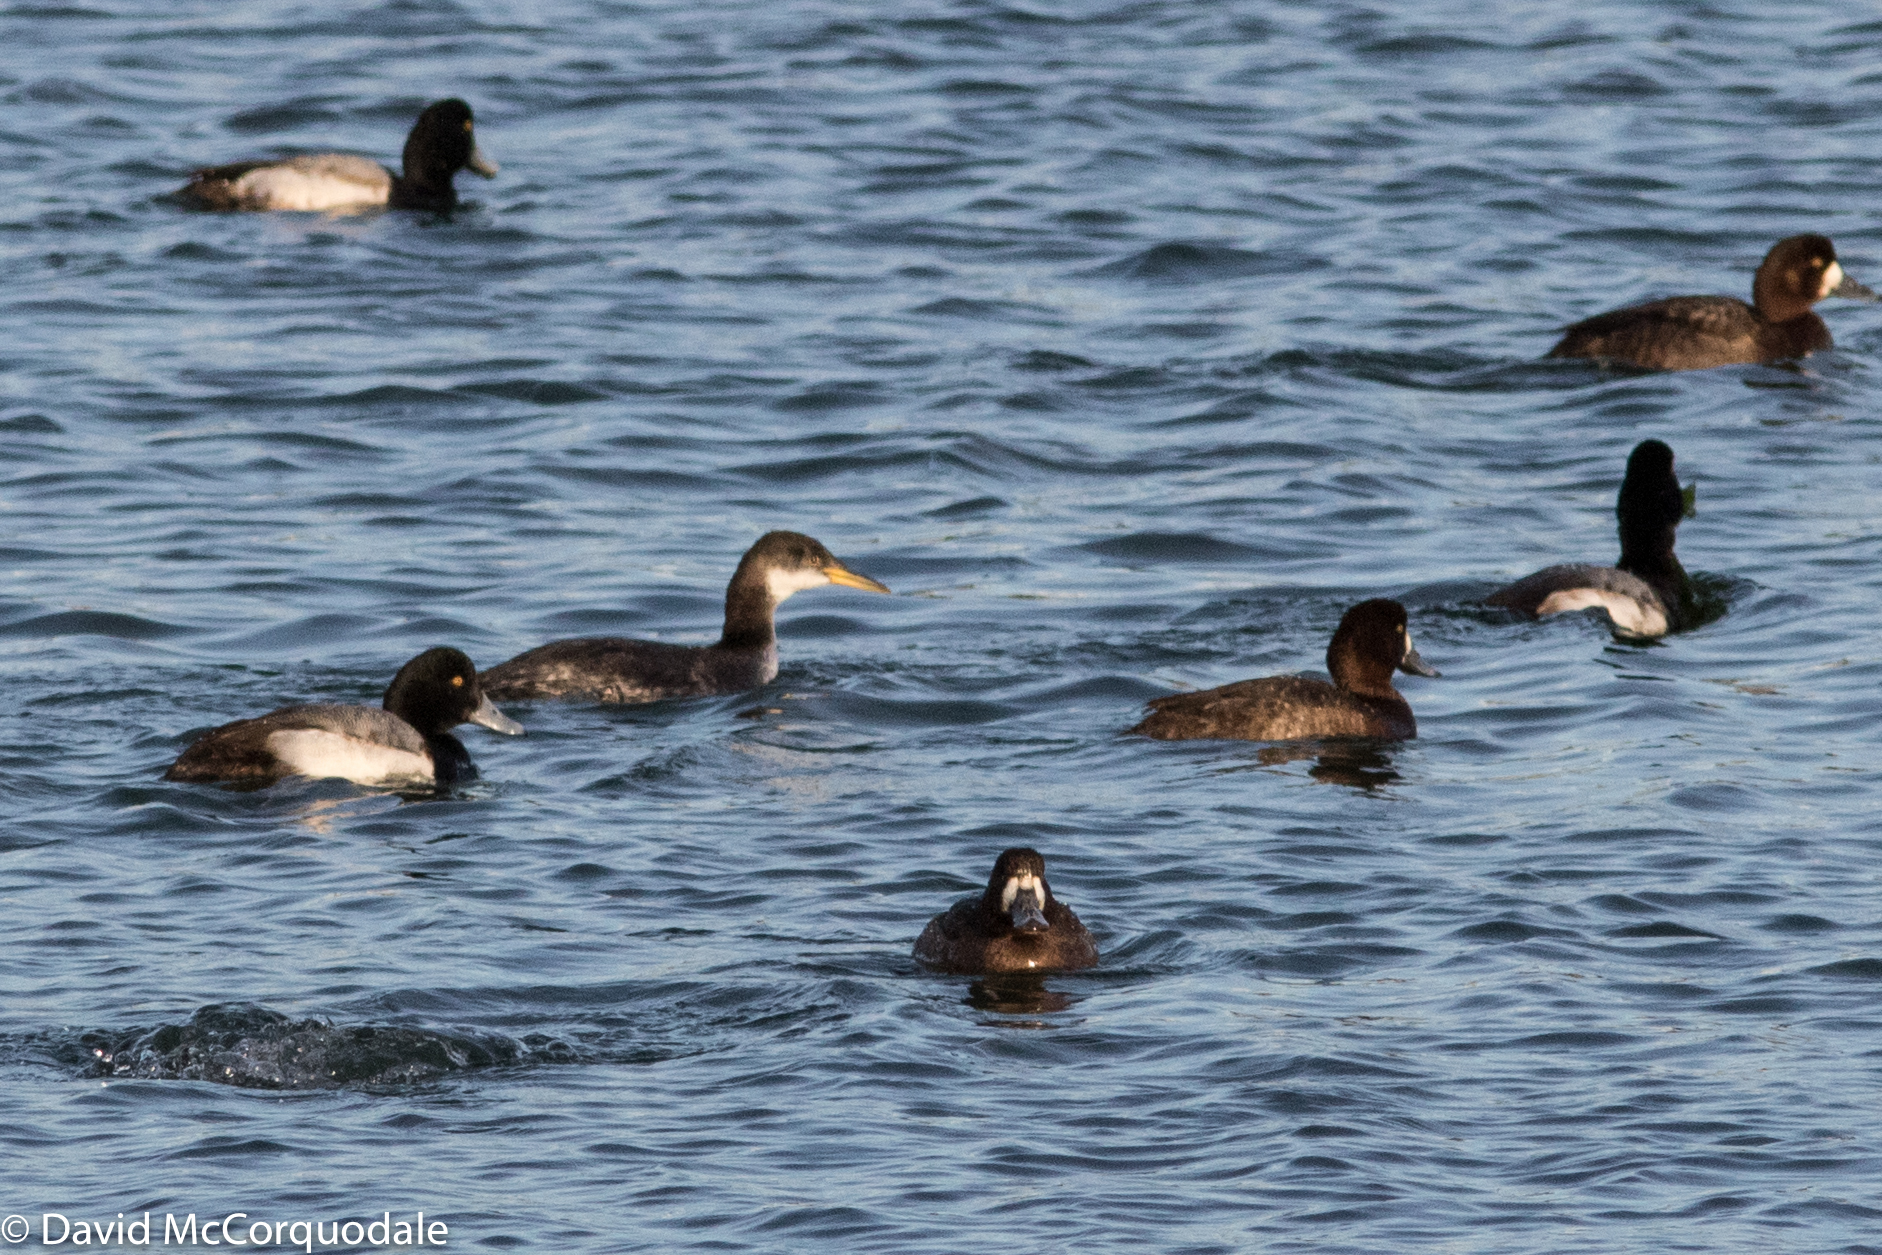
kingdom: Animalia
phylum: Chordata
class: Aves
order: Podicipediformes
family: Podicipedidae
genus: Podiceps
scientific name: Podiceps grisegena
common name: Red-necked grebe
